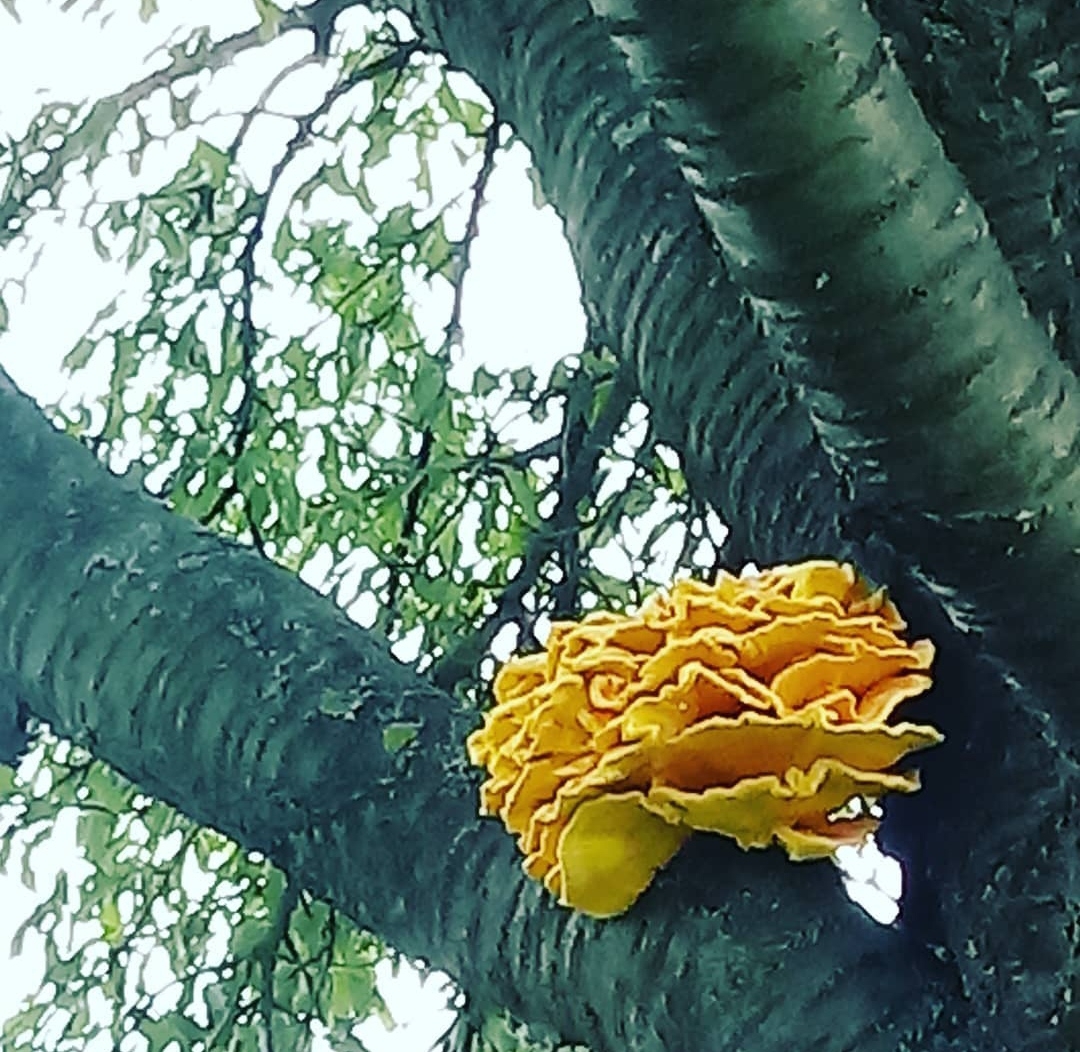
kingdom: Fungi
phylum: Basidiomycota
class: Agaricomycetes
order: Polyporales
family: Laetiporaceae
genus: Laetiporus
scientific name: Laetiporus sulphureus
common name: Chicken of the woods
